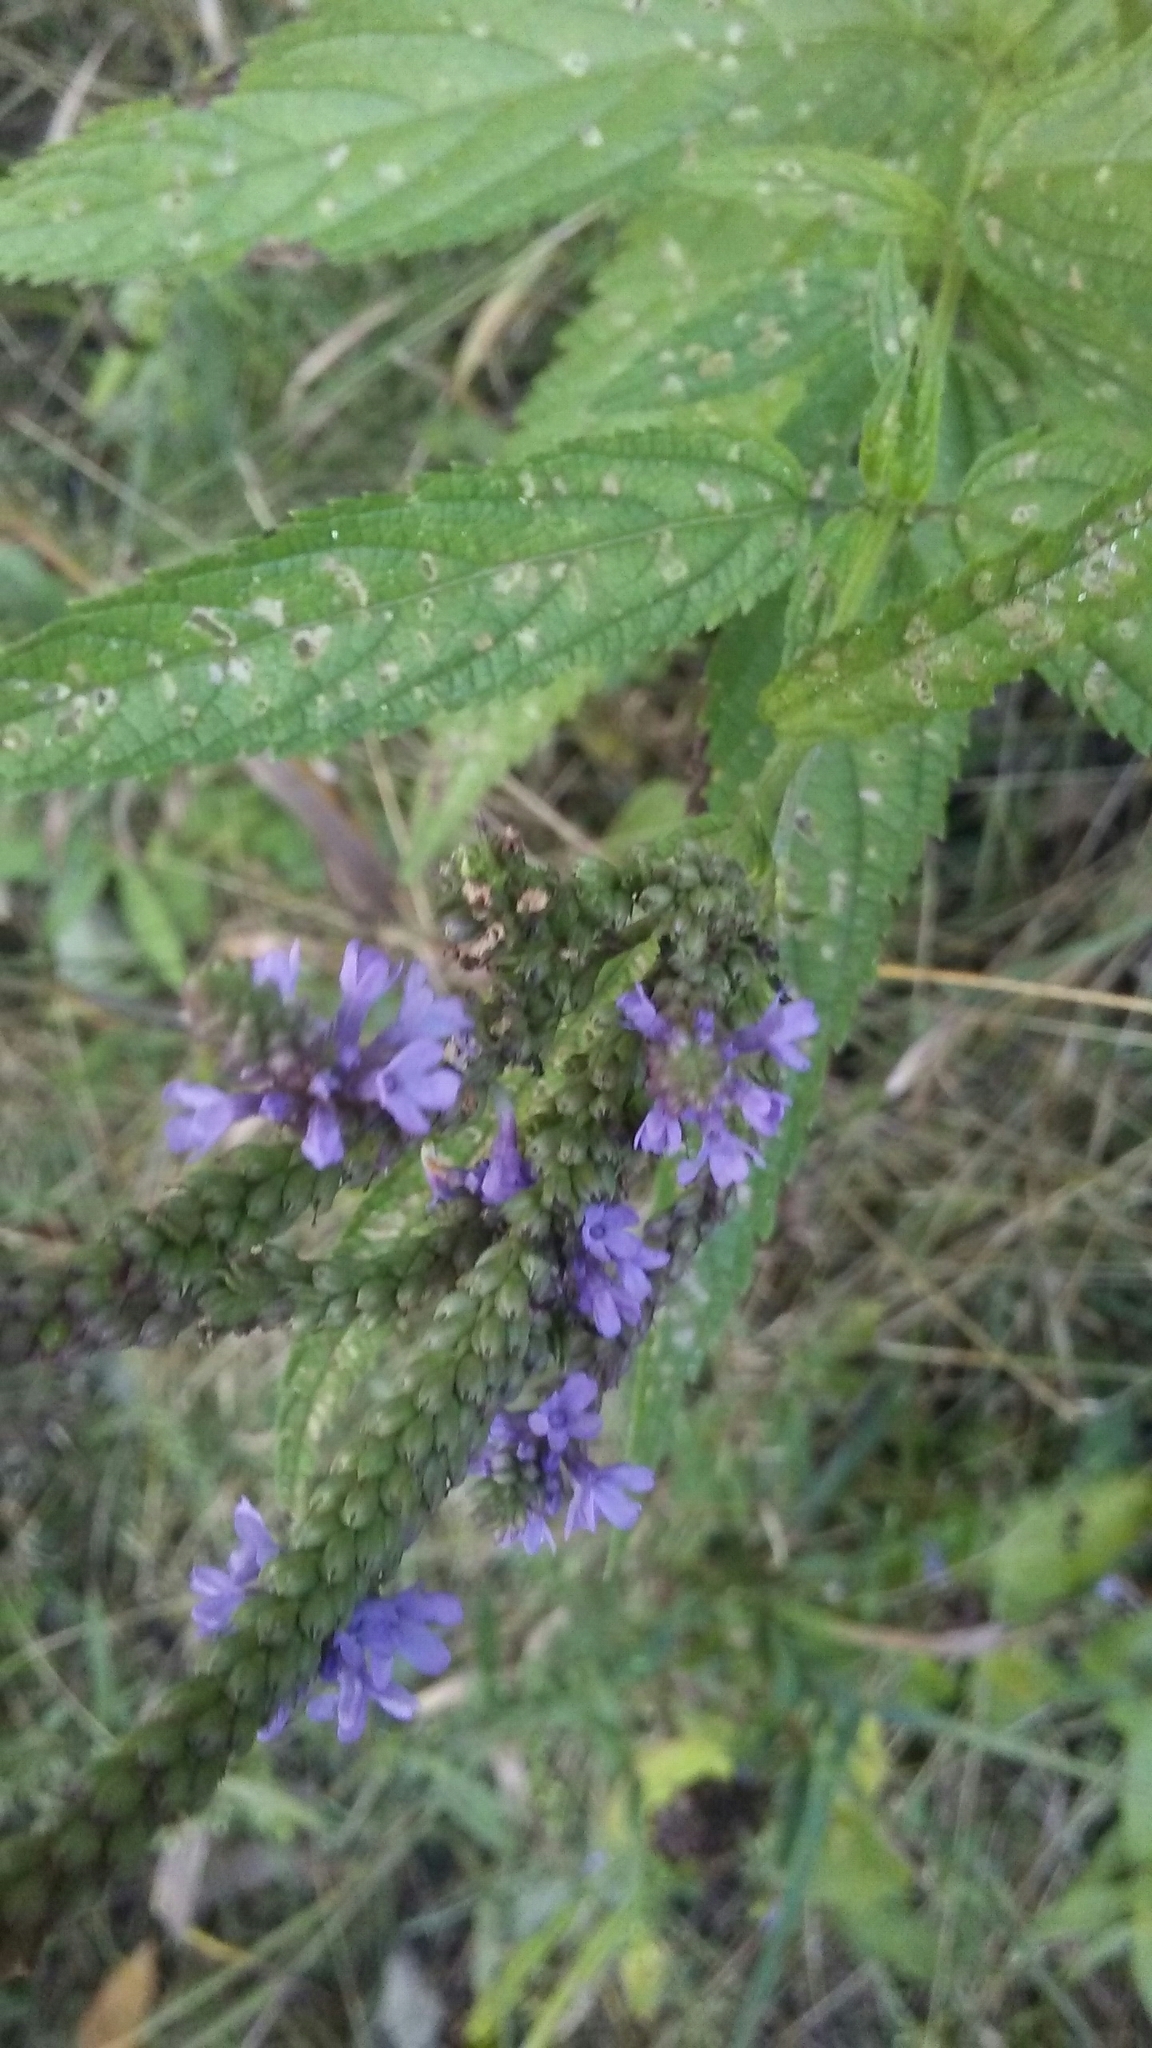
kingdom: Plantae
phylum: Tracheophyta
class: Magnoliopsida
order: Lamiales
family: Verbenaceae
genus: Verbena
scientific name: Verbena hastata
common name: American blue vervain
